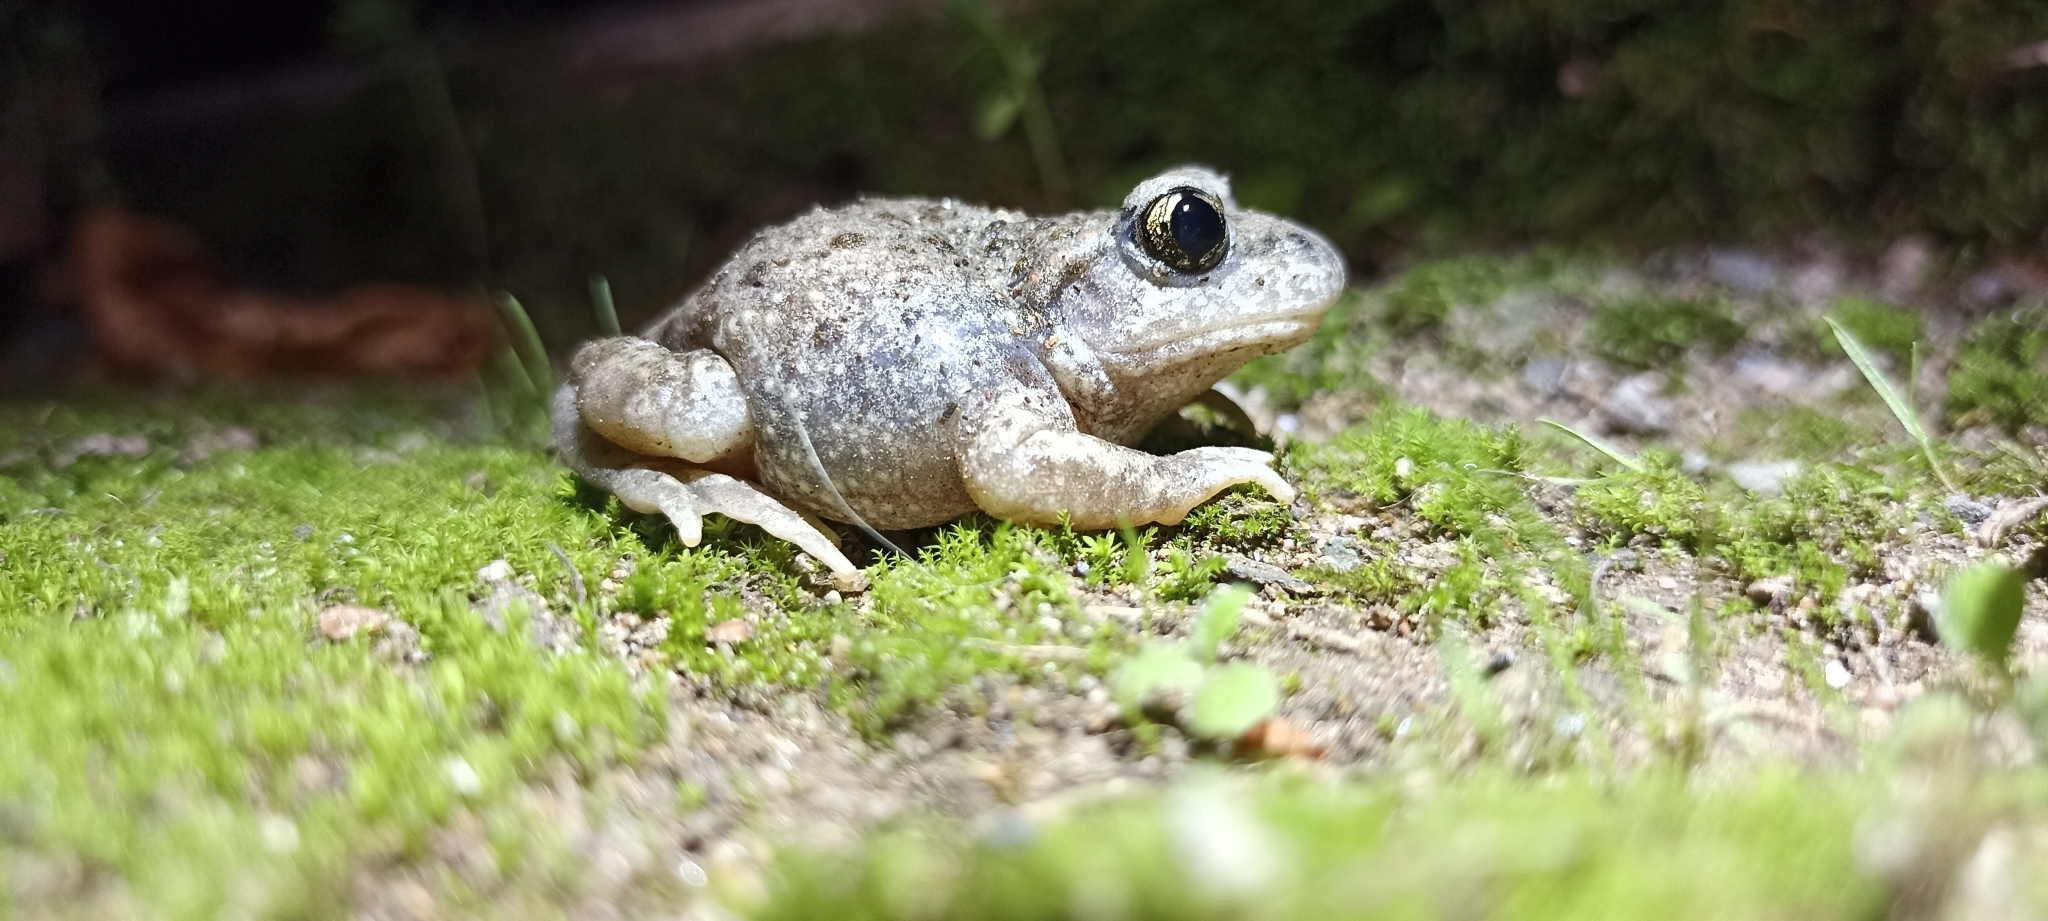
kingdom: Animalia
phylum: Chordata
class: Amphibia
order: Anura
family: Alytidae
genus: Alytes
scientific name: Alytes obstetricans
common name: Midwife toad
